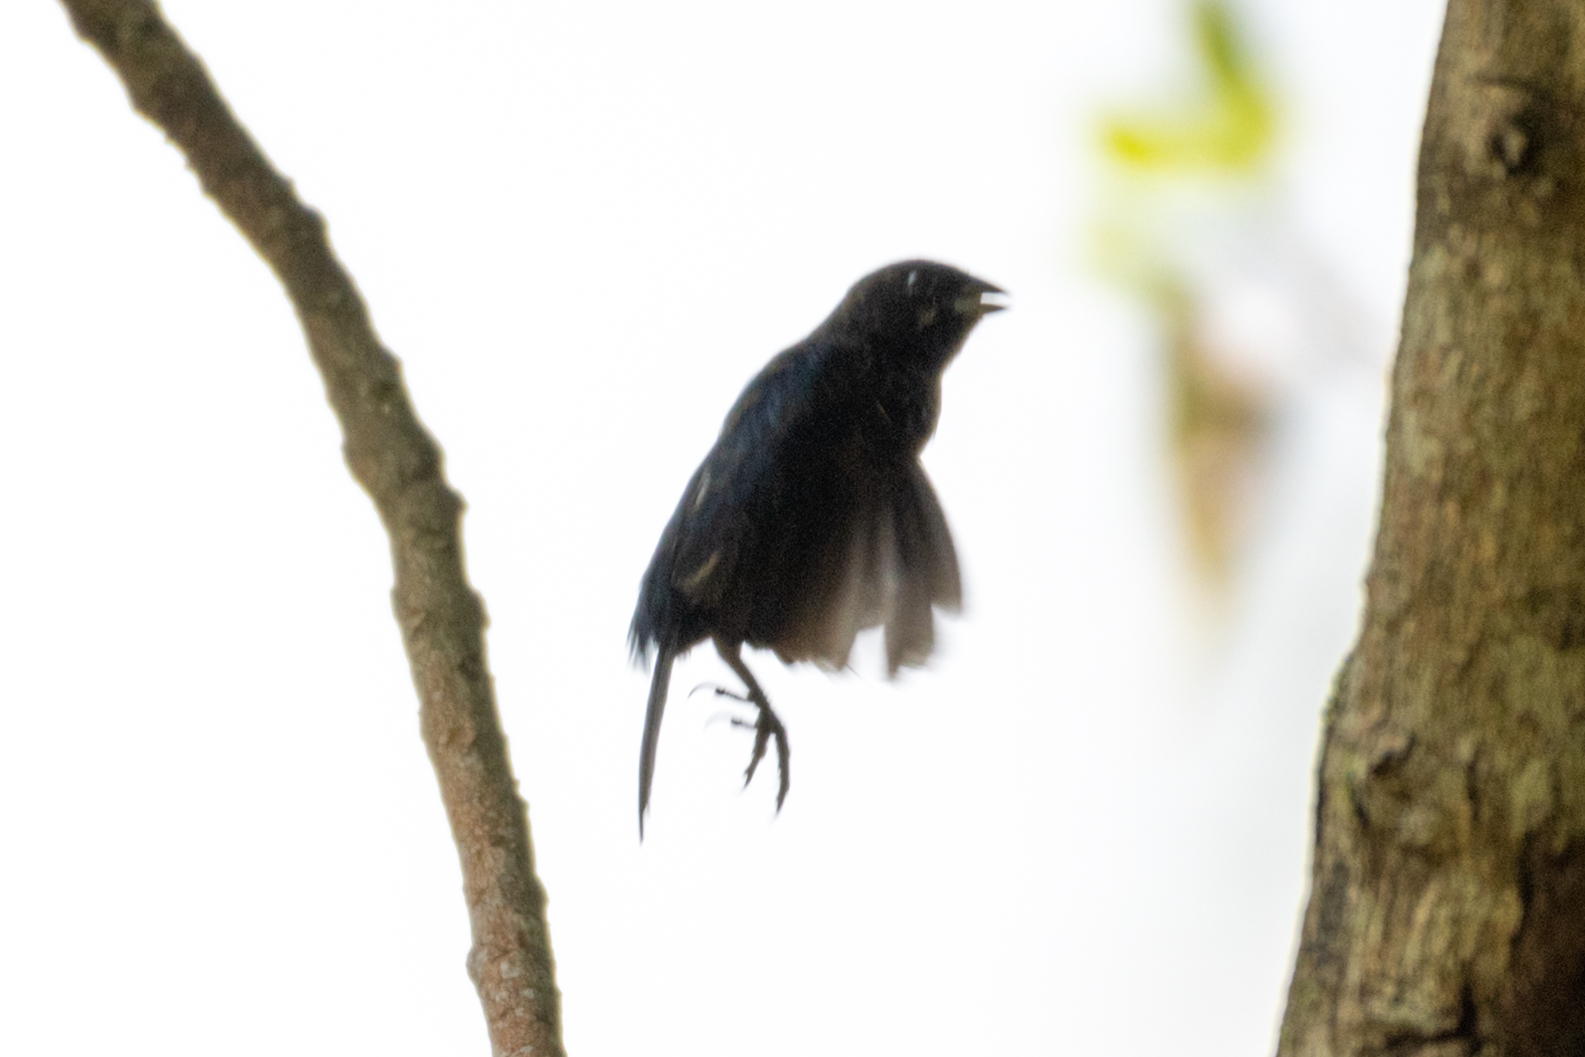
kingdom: Animalia
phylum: Chordata
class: Aves
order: Passeriformes
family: Thraupidae
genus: Volatinia
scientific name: Volatinia jacarina
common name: Blue-black grassquit
